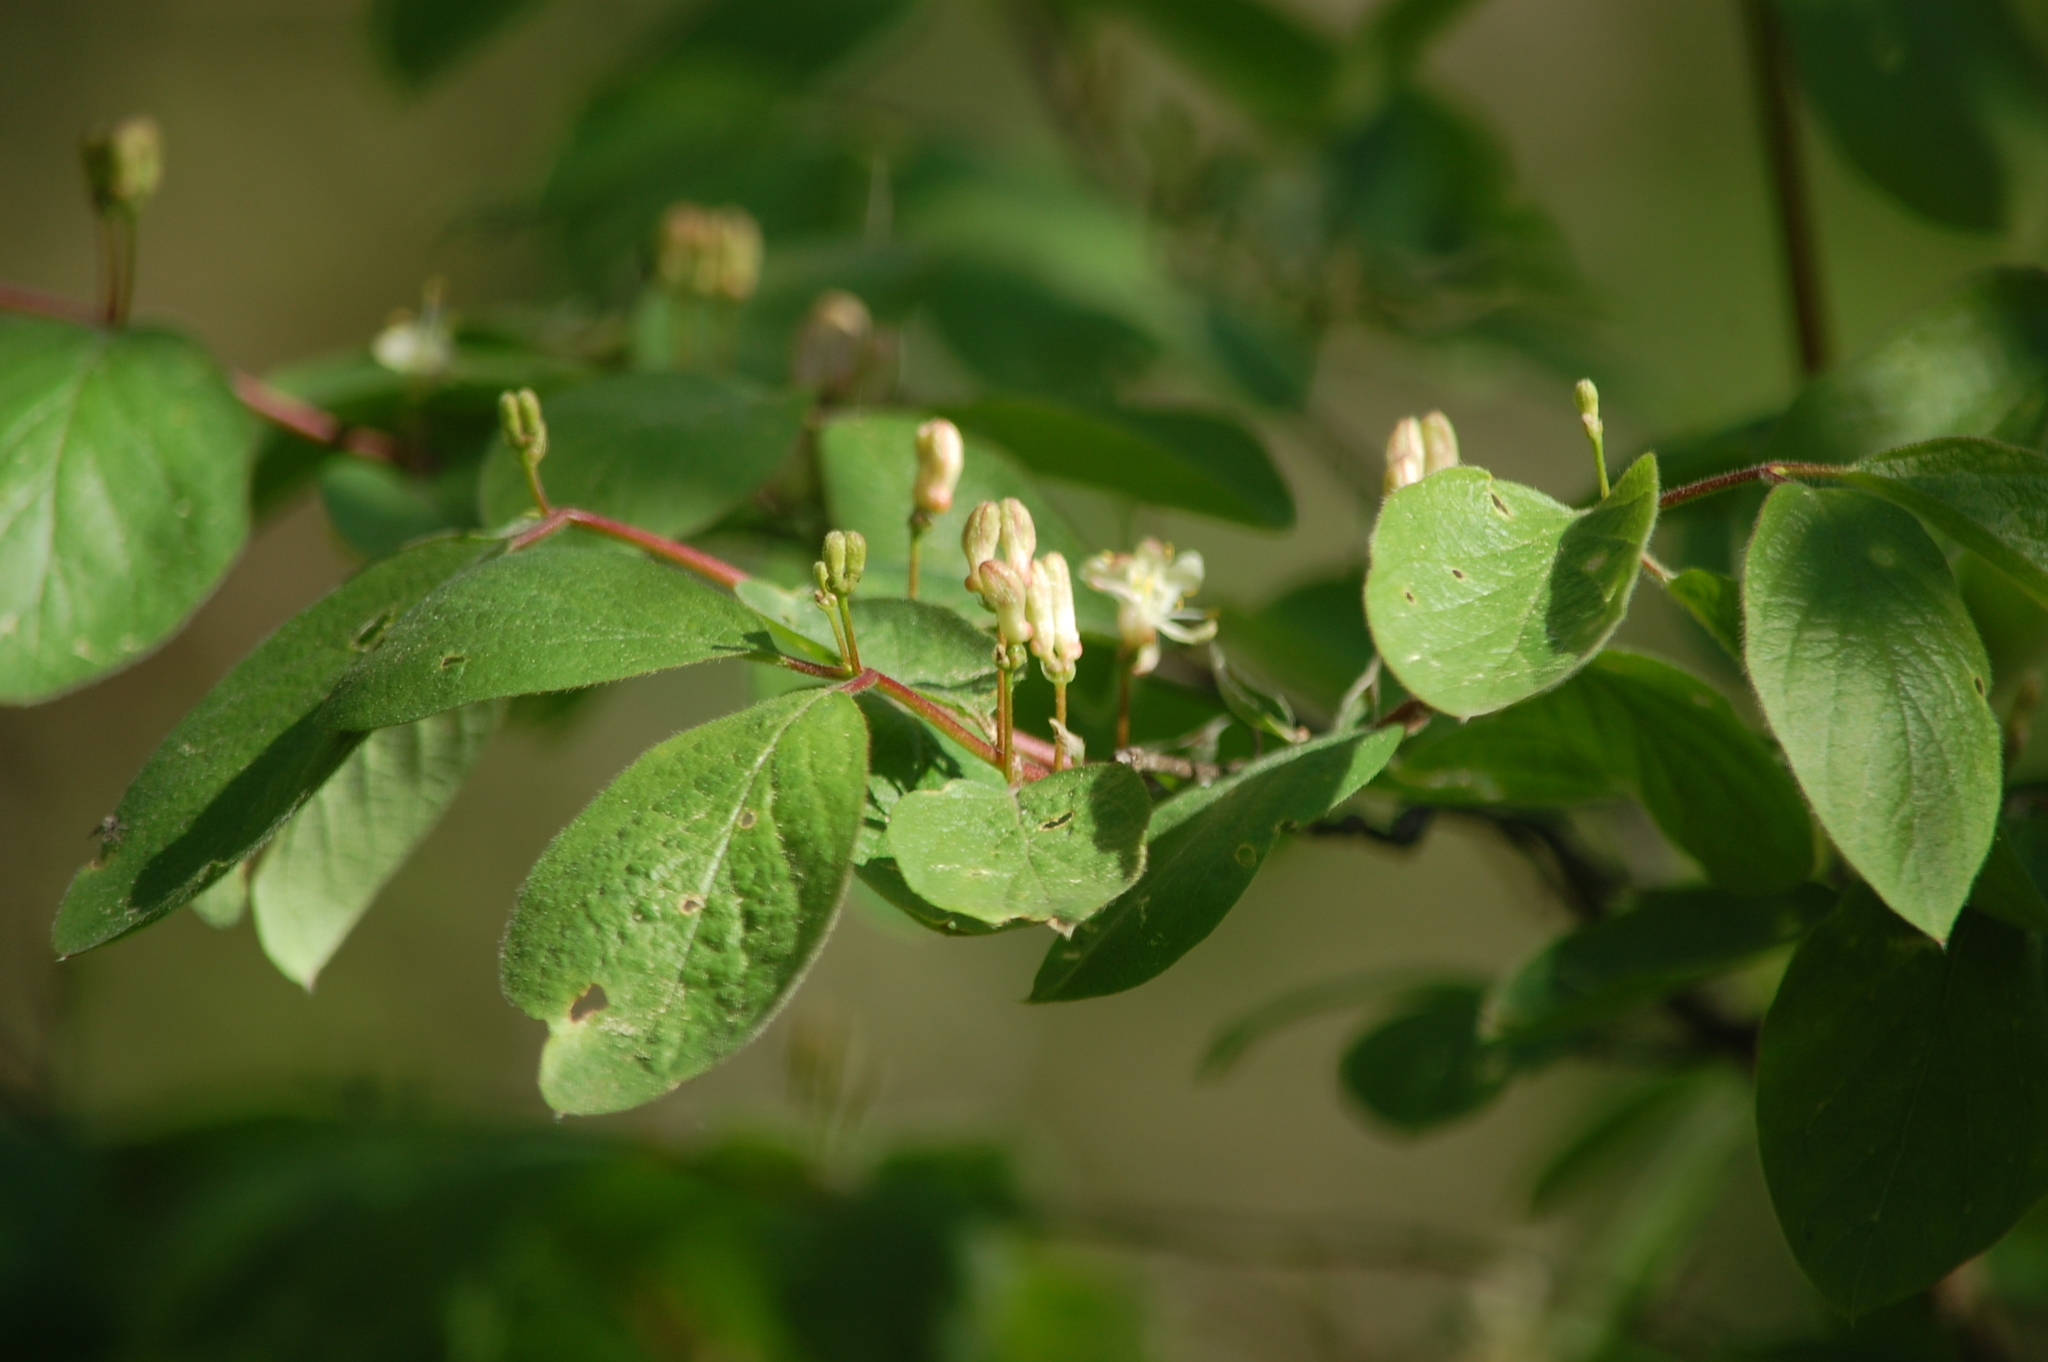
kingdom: Plantae
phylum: Tracheophyta
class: Magnoliopsida
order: Dipsacales
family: Caprifoliaceae
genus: Lonicera
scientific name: Lonicera xylosteum
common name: Fly honeysuckle
